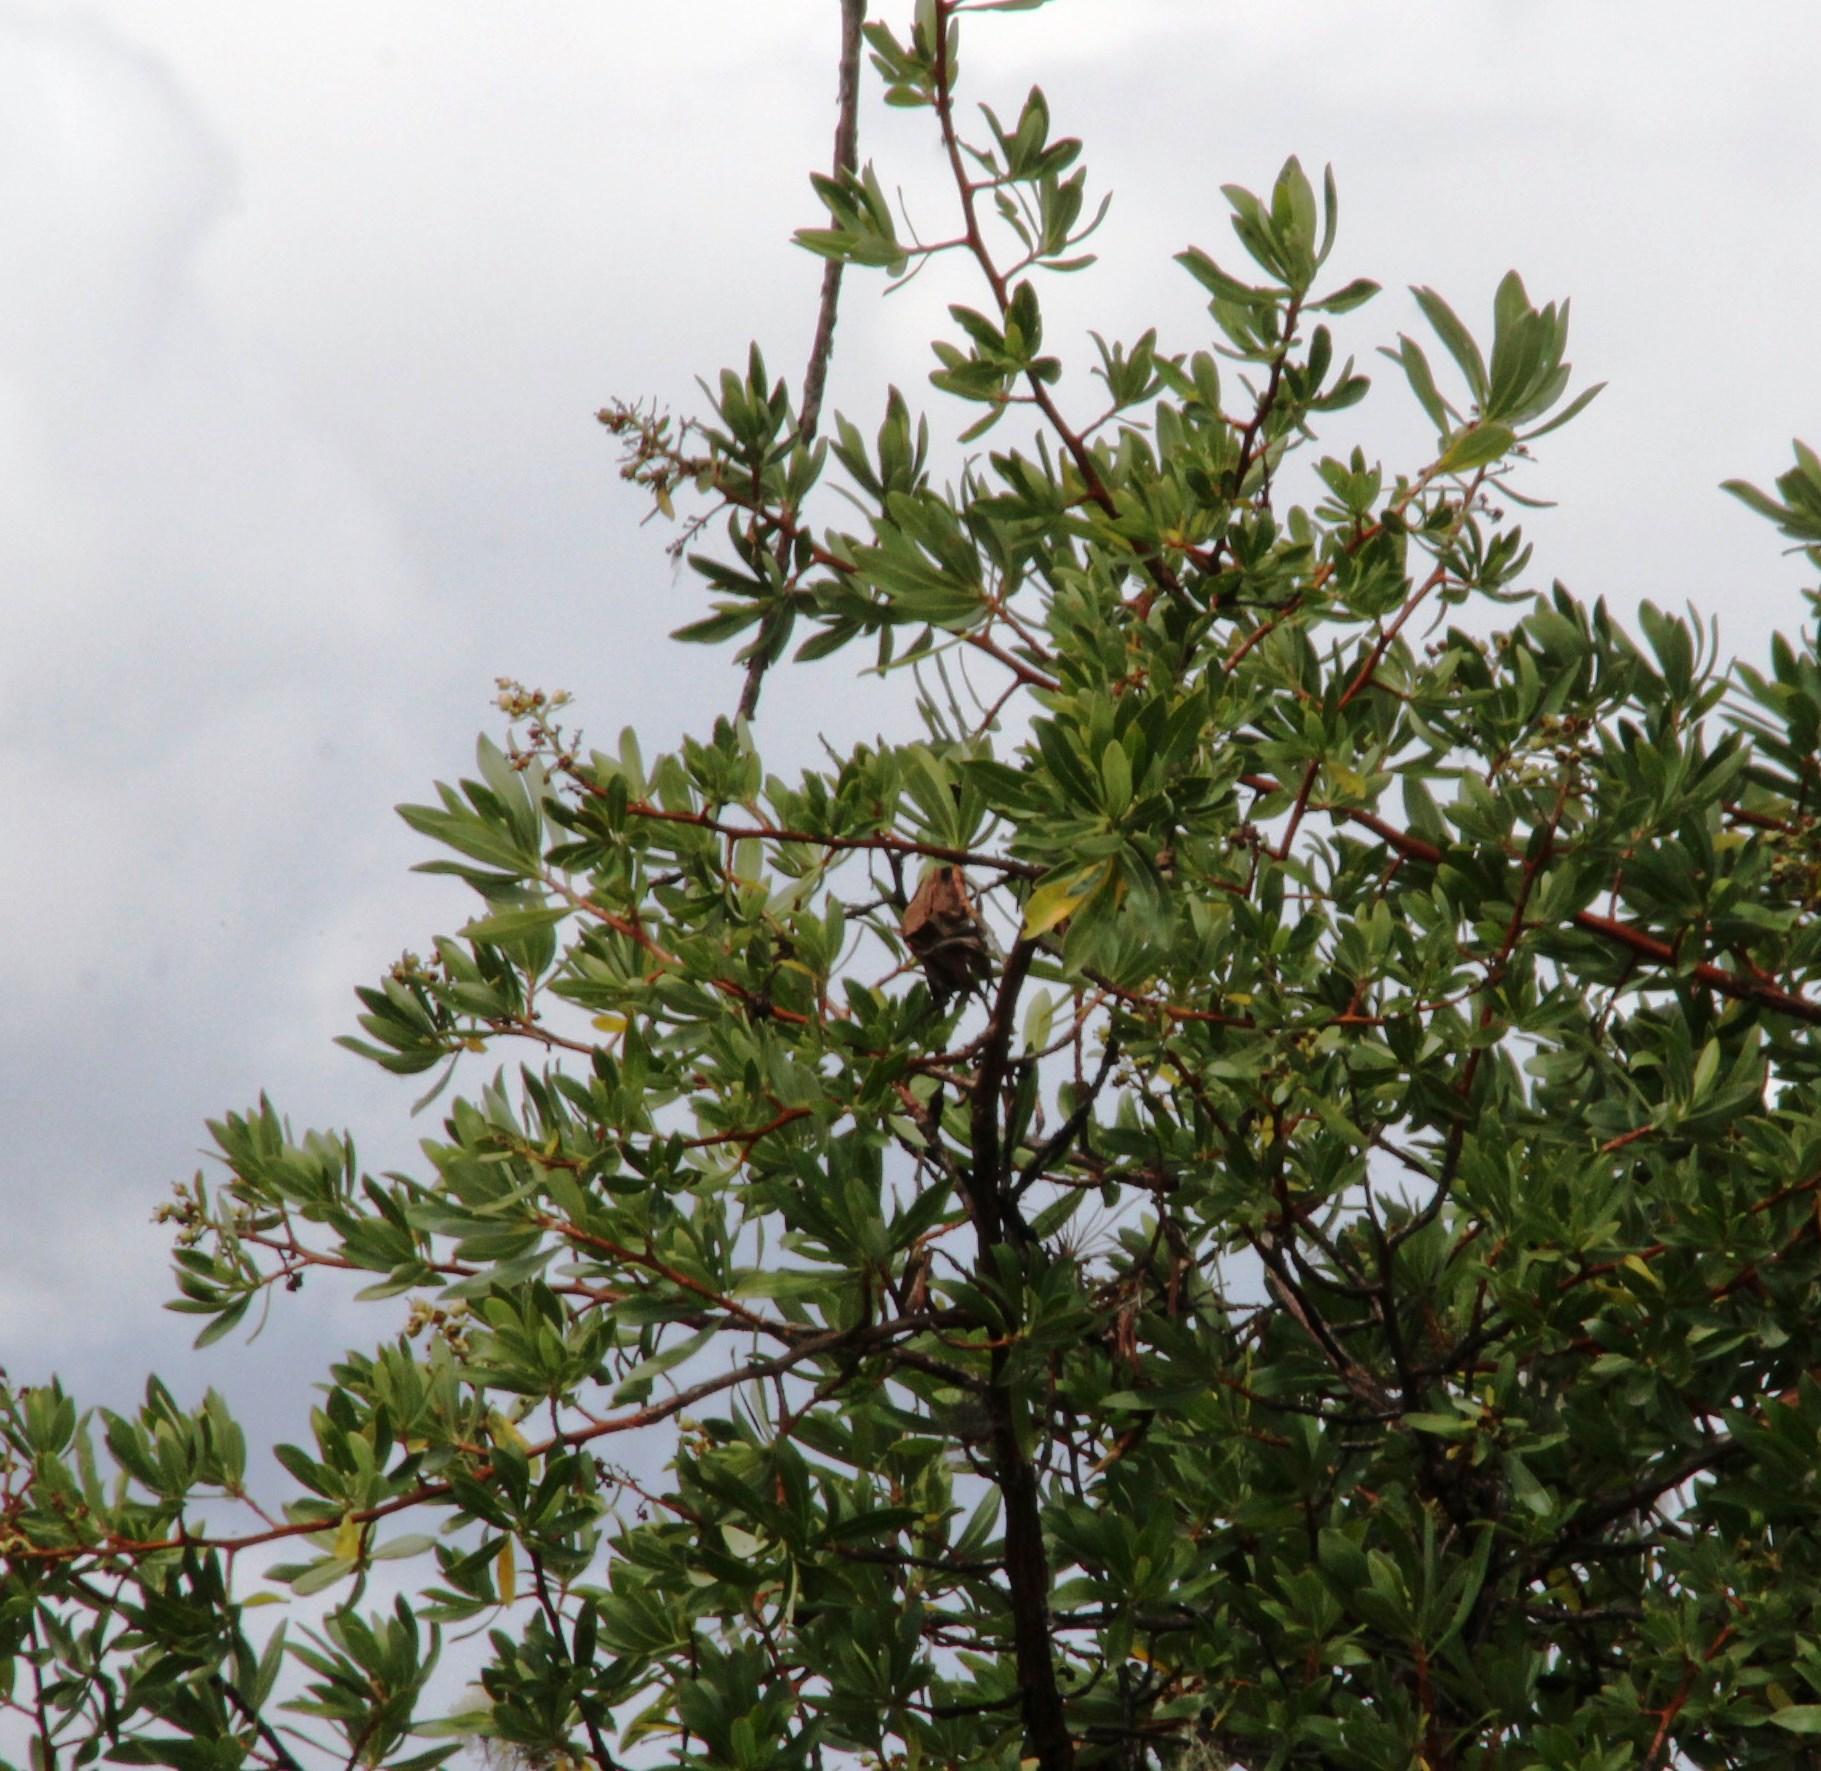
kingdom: Plantae
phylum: Tracheophyta
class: Magnoliopsida
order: Escalloniales
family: Escalloniaceae
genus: Escallonia
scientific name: Escallonia resinosa
